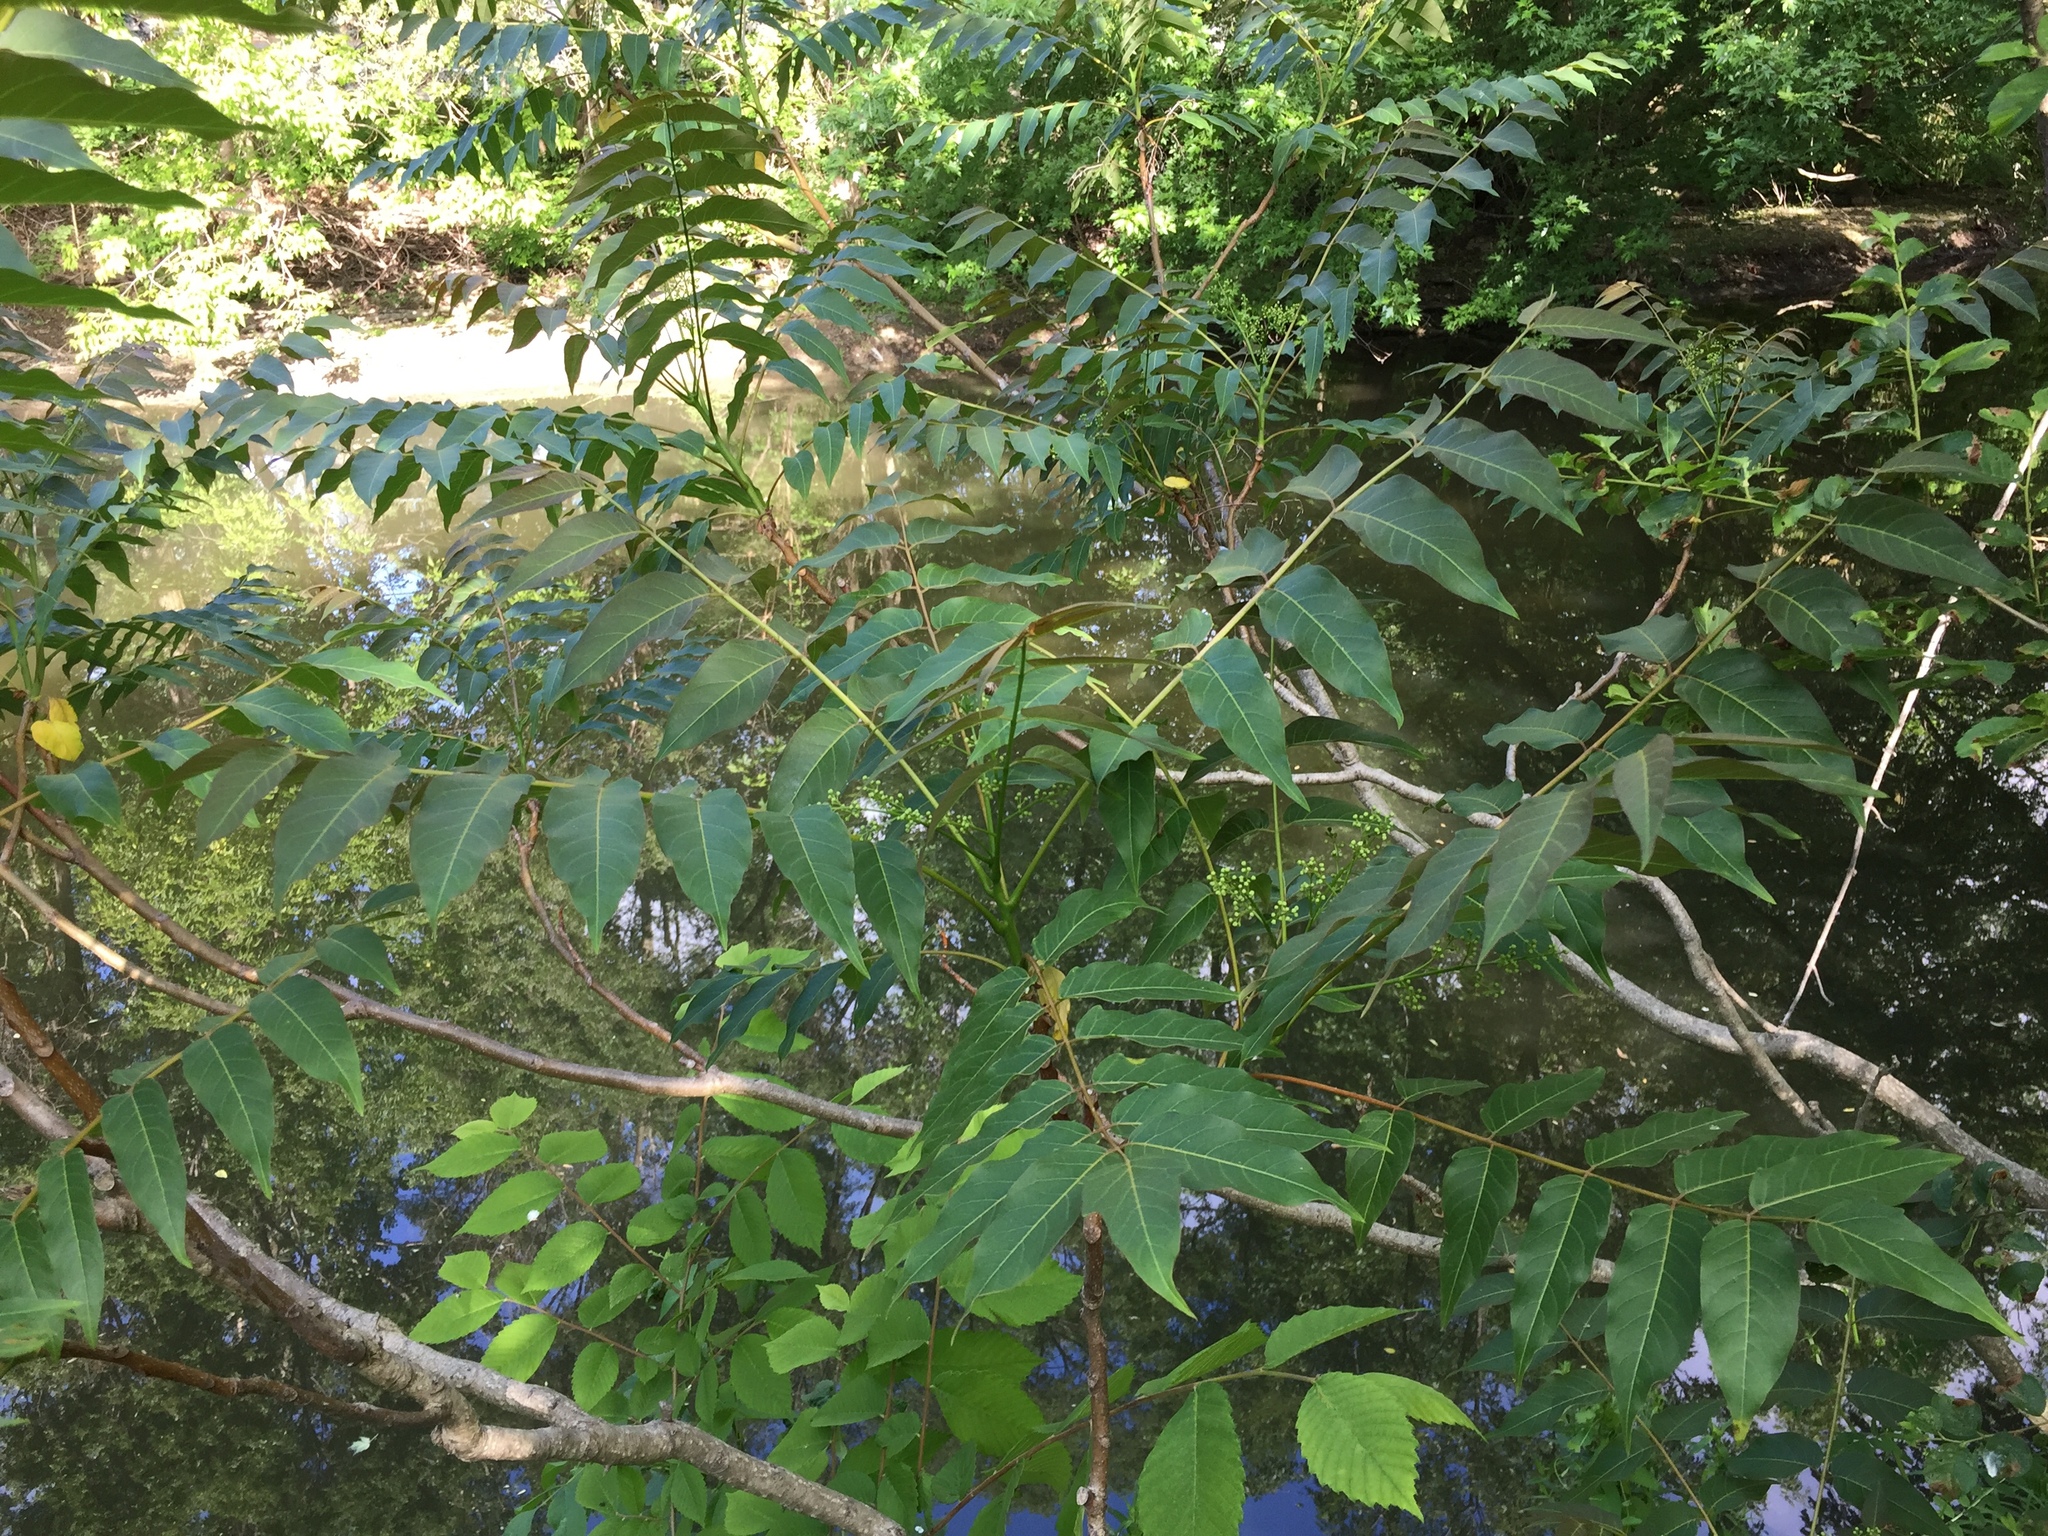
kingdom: Plantae
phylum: Tracheophyta
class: Magnoliopsida
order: Sapindales
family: Simaroubaceae
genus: Ailanthus
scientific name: Ailanthus altissima
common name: Tree-of-heaven
